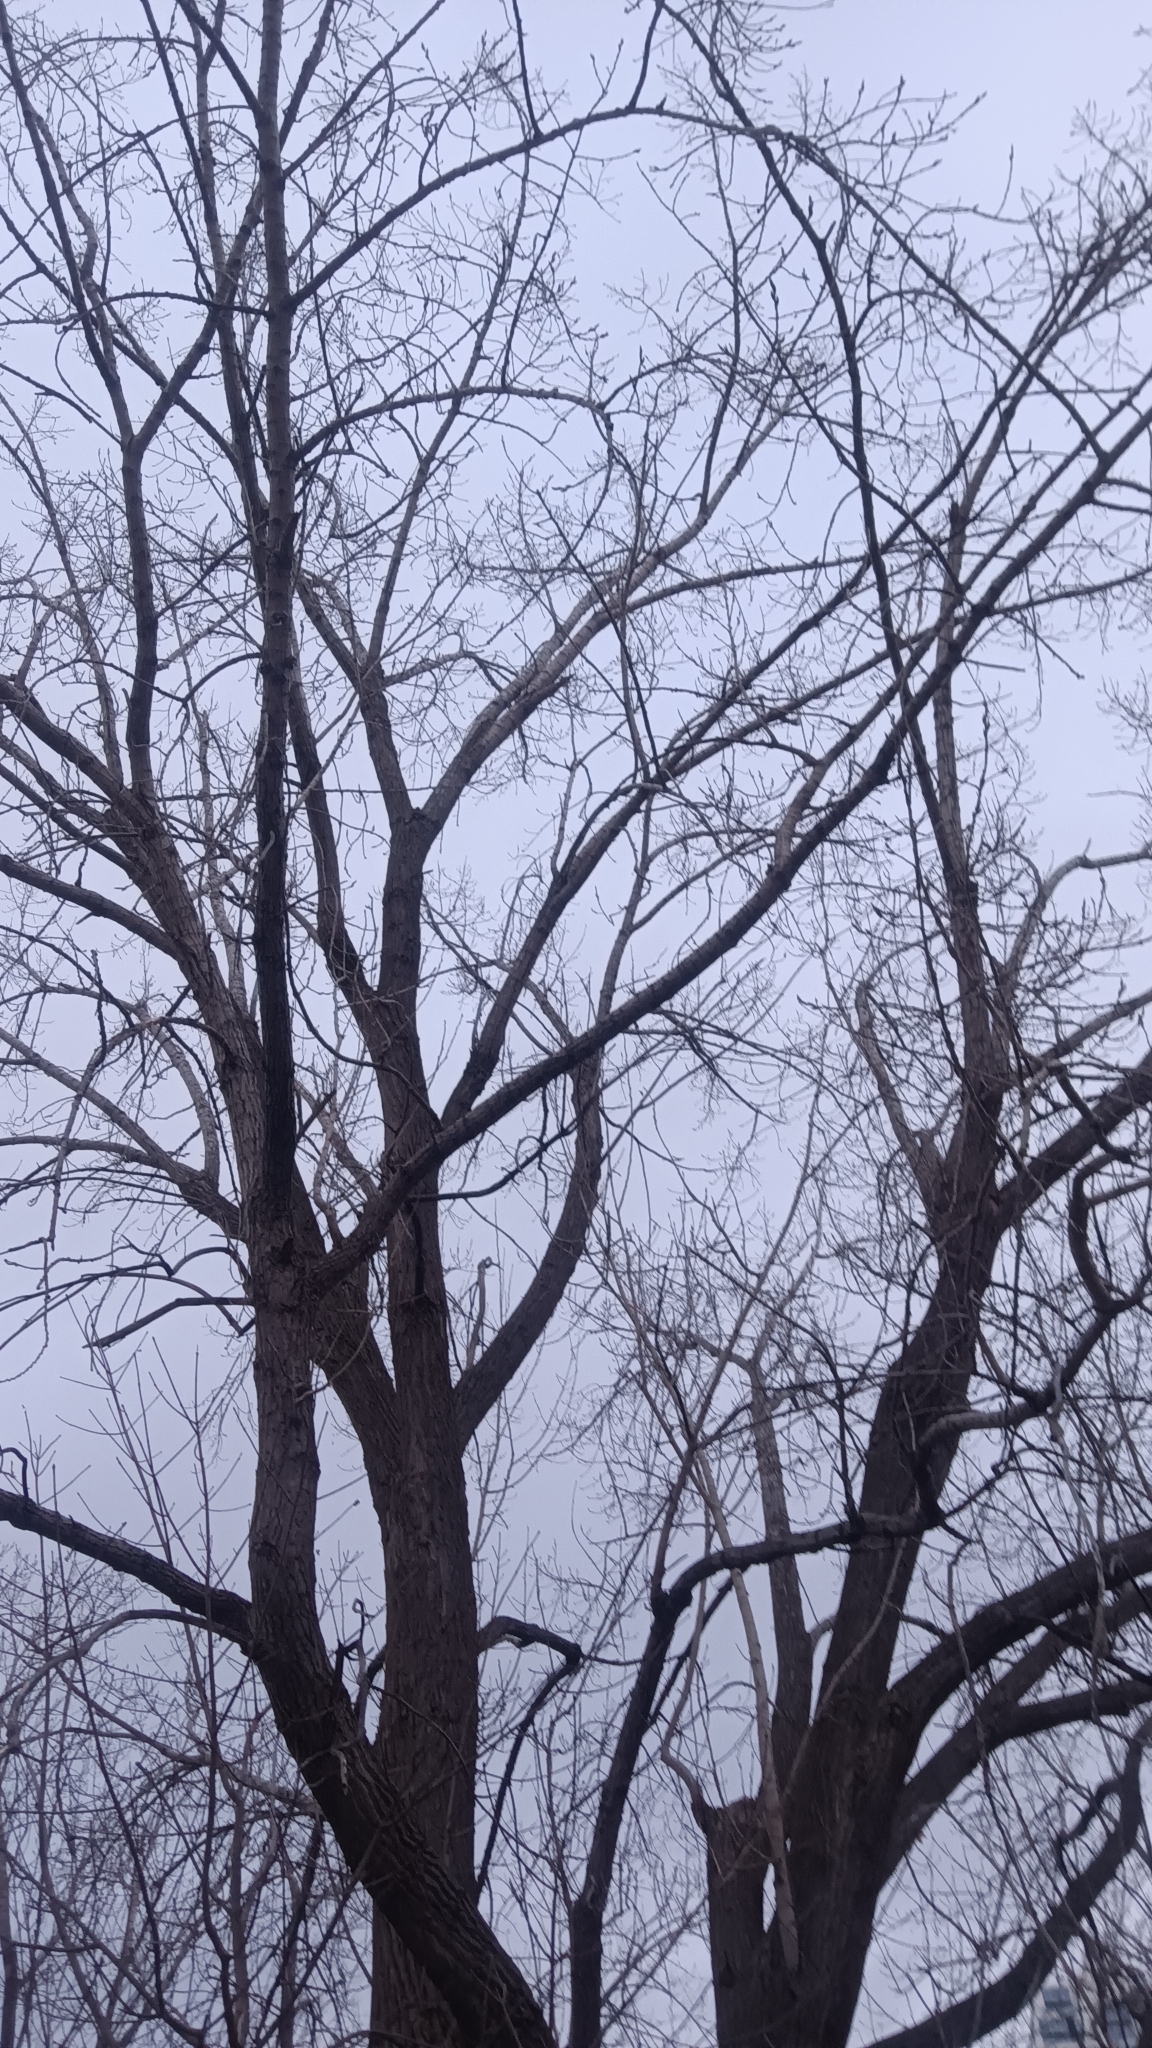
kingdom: Plantae
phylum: Tracheophyta
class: Magnoliopsida
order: Malpighiales
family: Salicaceae
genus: Populus
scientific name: Populus deltoides
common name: Eastern cottonwood
